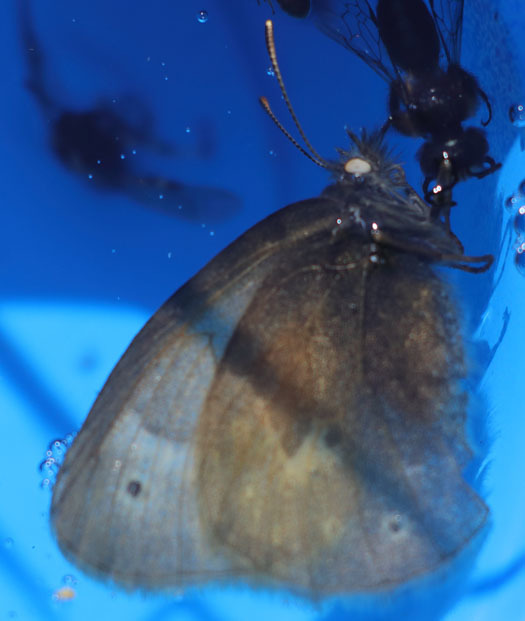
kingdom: Animalia
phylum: Arthropoda
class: Insecta
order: Lepidoptera
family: Nymphalidae
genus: Coenonympha
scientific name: Coenonympha california
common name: Common ringlet
